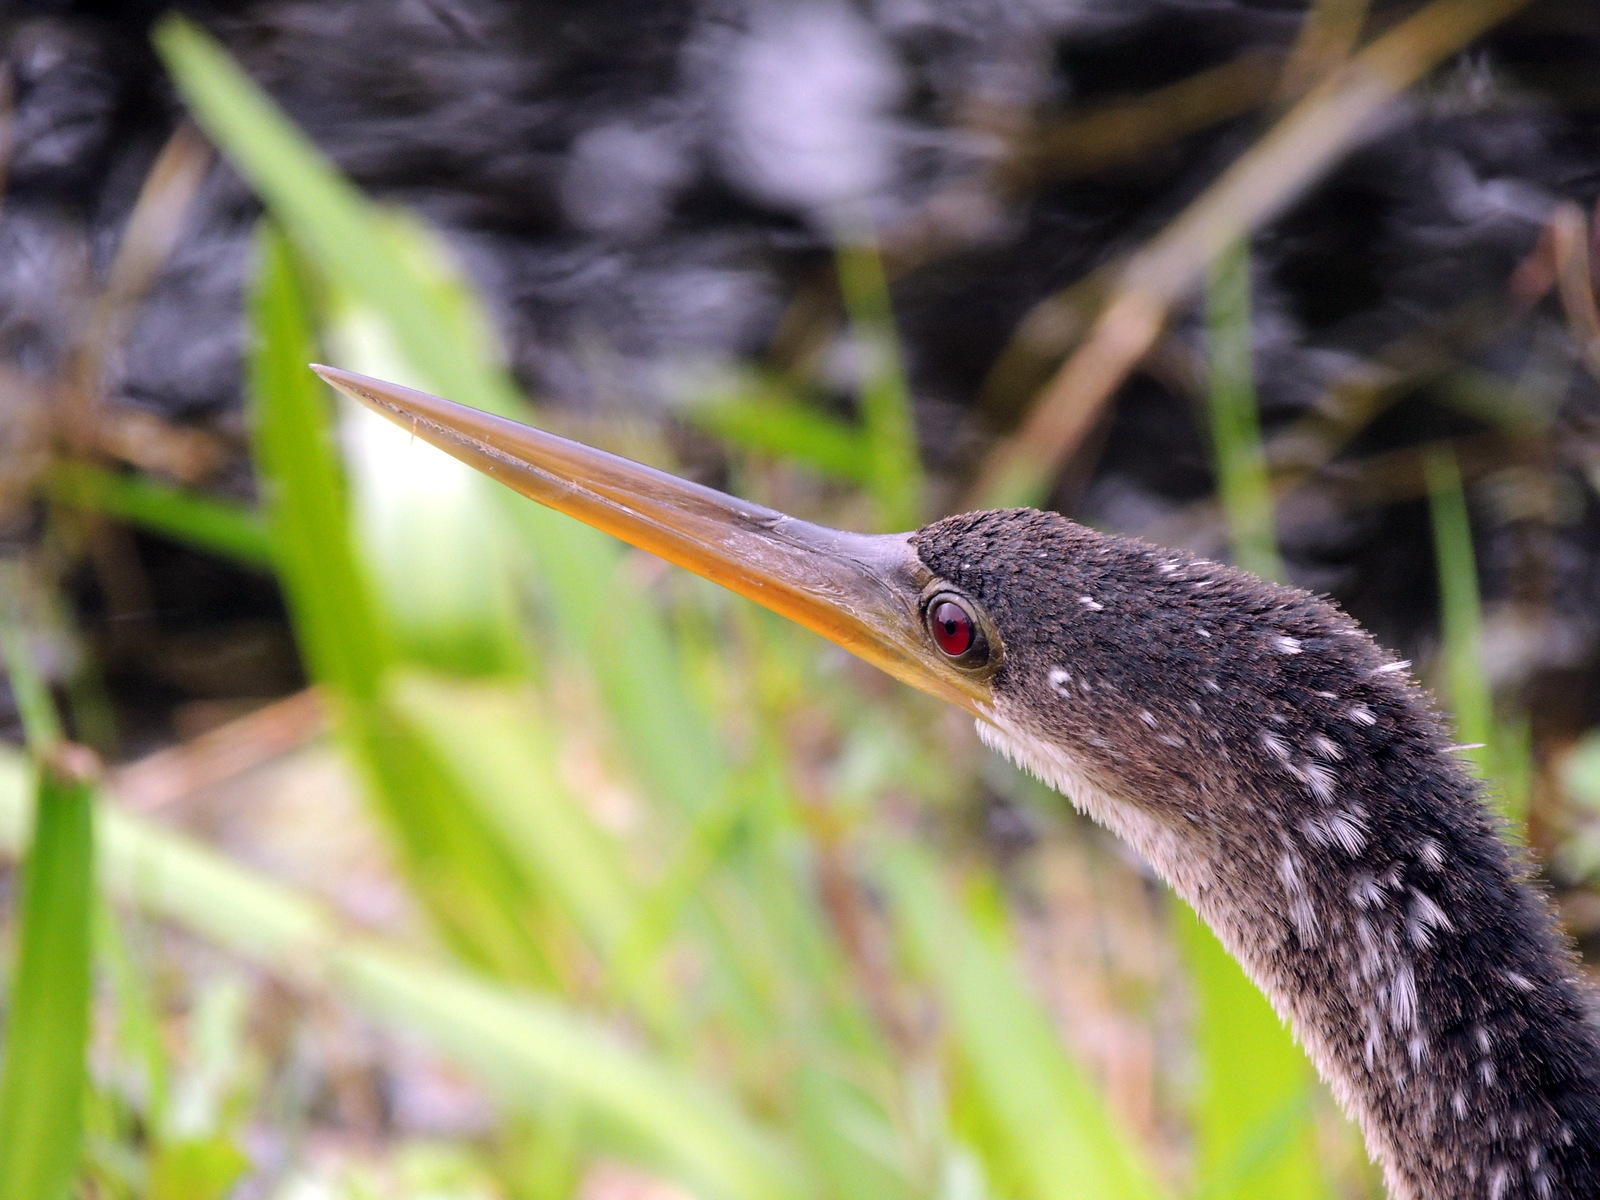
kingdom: Animalia
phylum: Chordata
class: Aves
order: Suliformes
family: Anhingidae
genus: Anhinga
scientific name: Anhinga anhinga
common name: Anhinga
